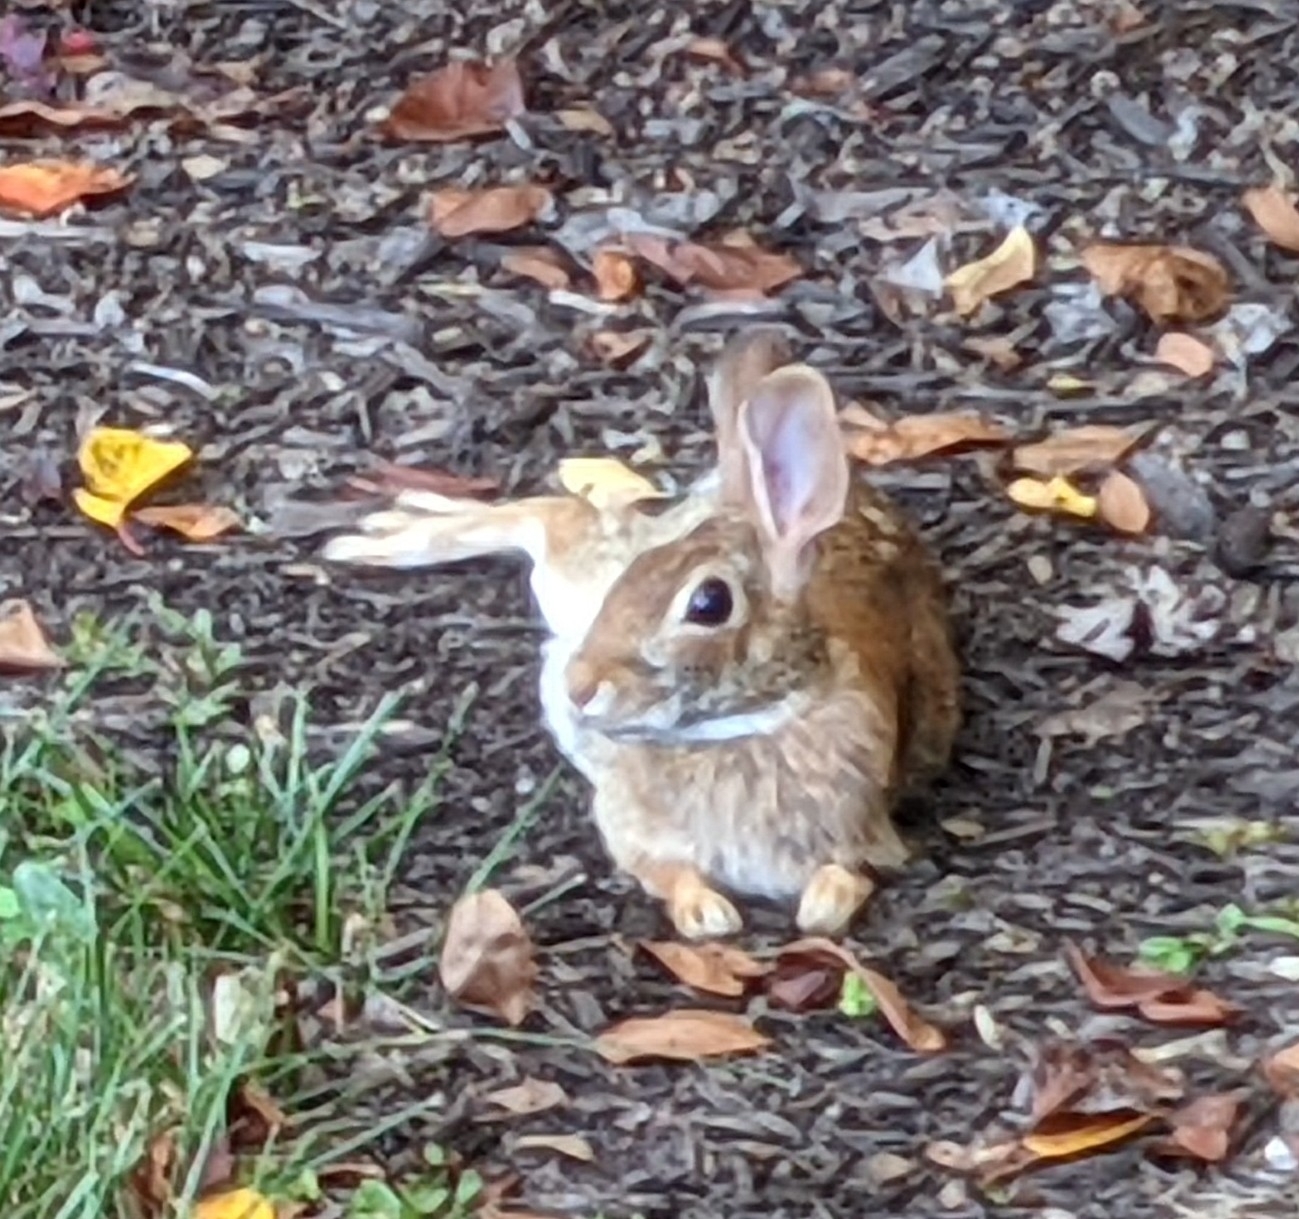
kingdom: Animalia
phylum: Chordata
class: Mammalia
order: Lagomorpha
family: Leporidae
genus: Sylvilagus
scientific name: Sylvilagus floridanus
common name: Eastern cottontail
